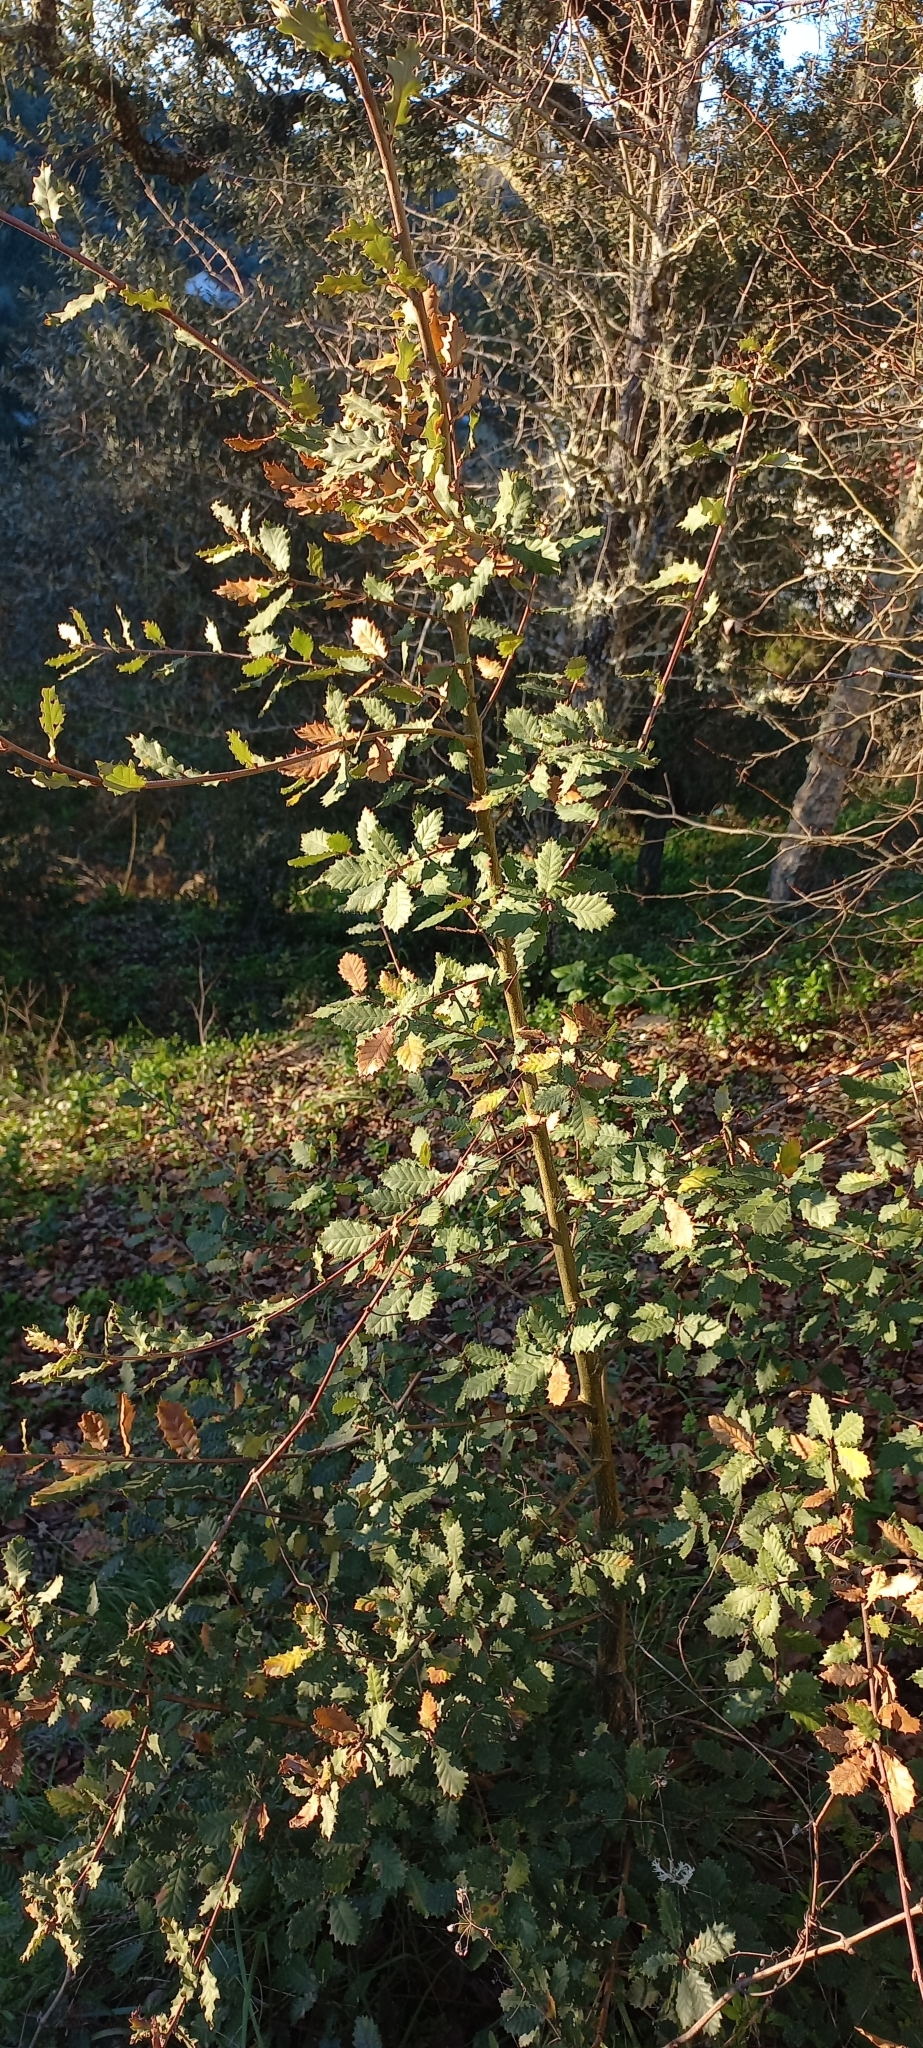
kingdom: Plantae
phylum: Tracheophyta
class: Magnoliopsida
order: Fagales
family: Fagaceae
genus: Quercus
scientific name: Quercus faginea
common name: Gall oak tree
